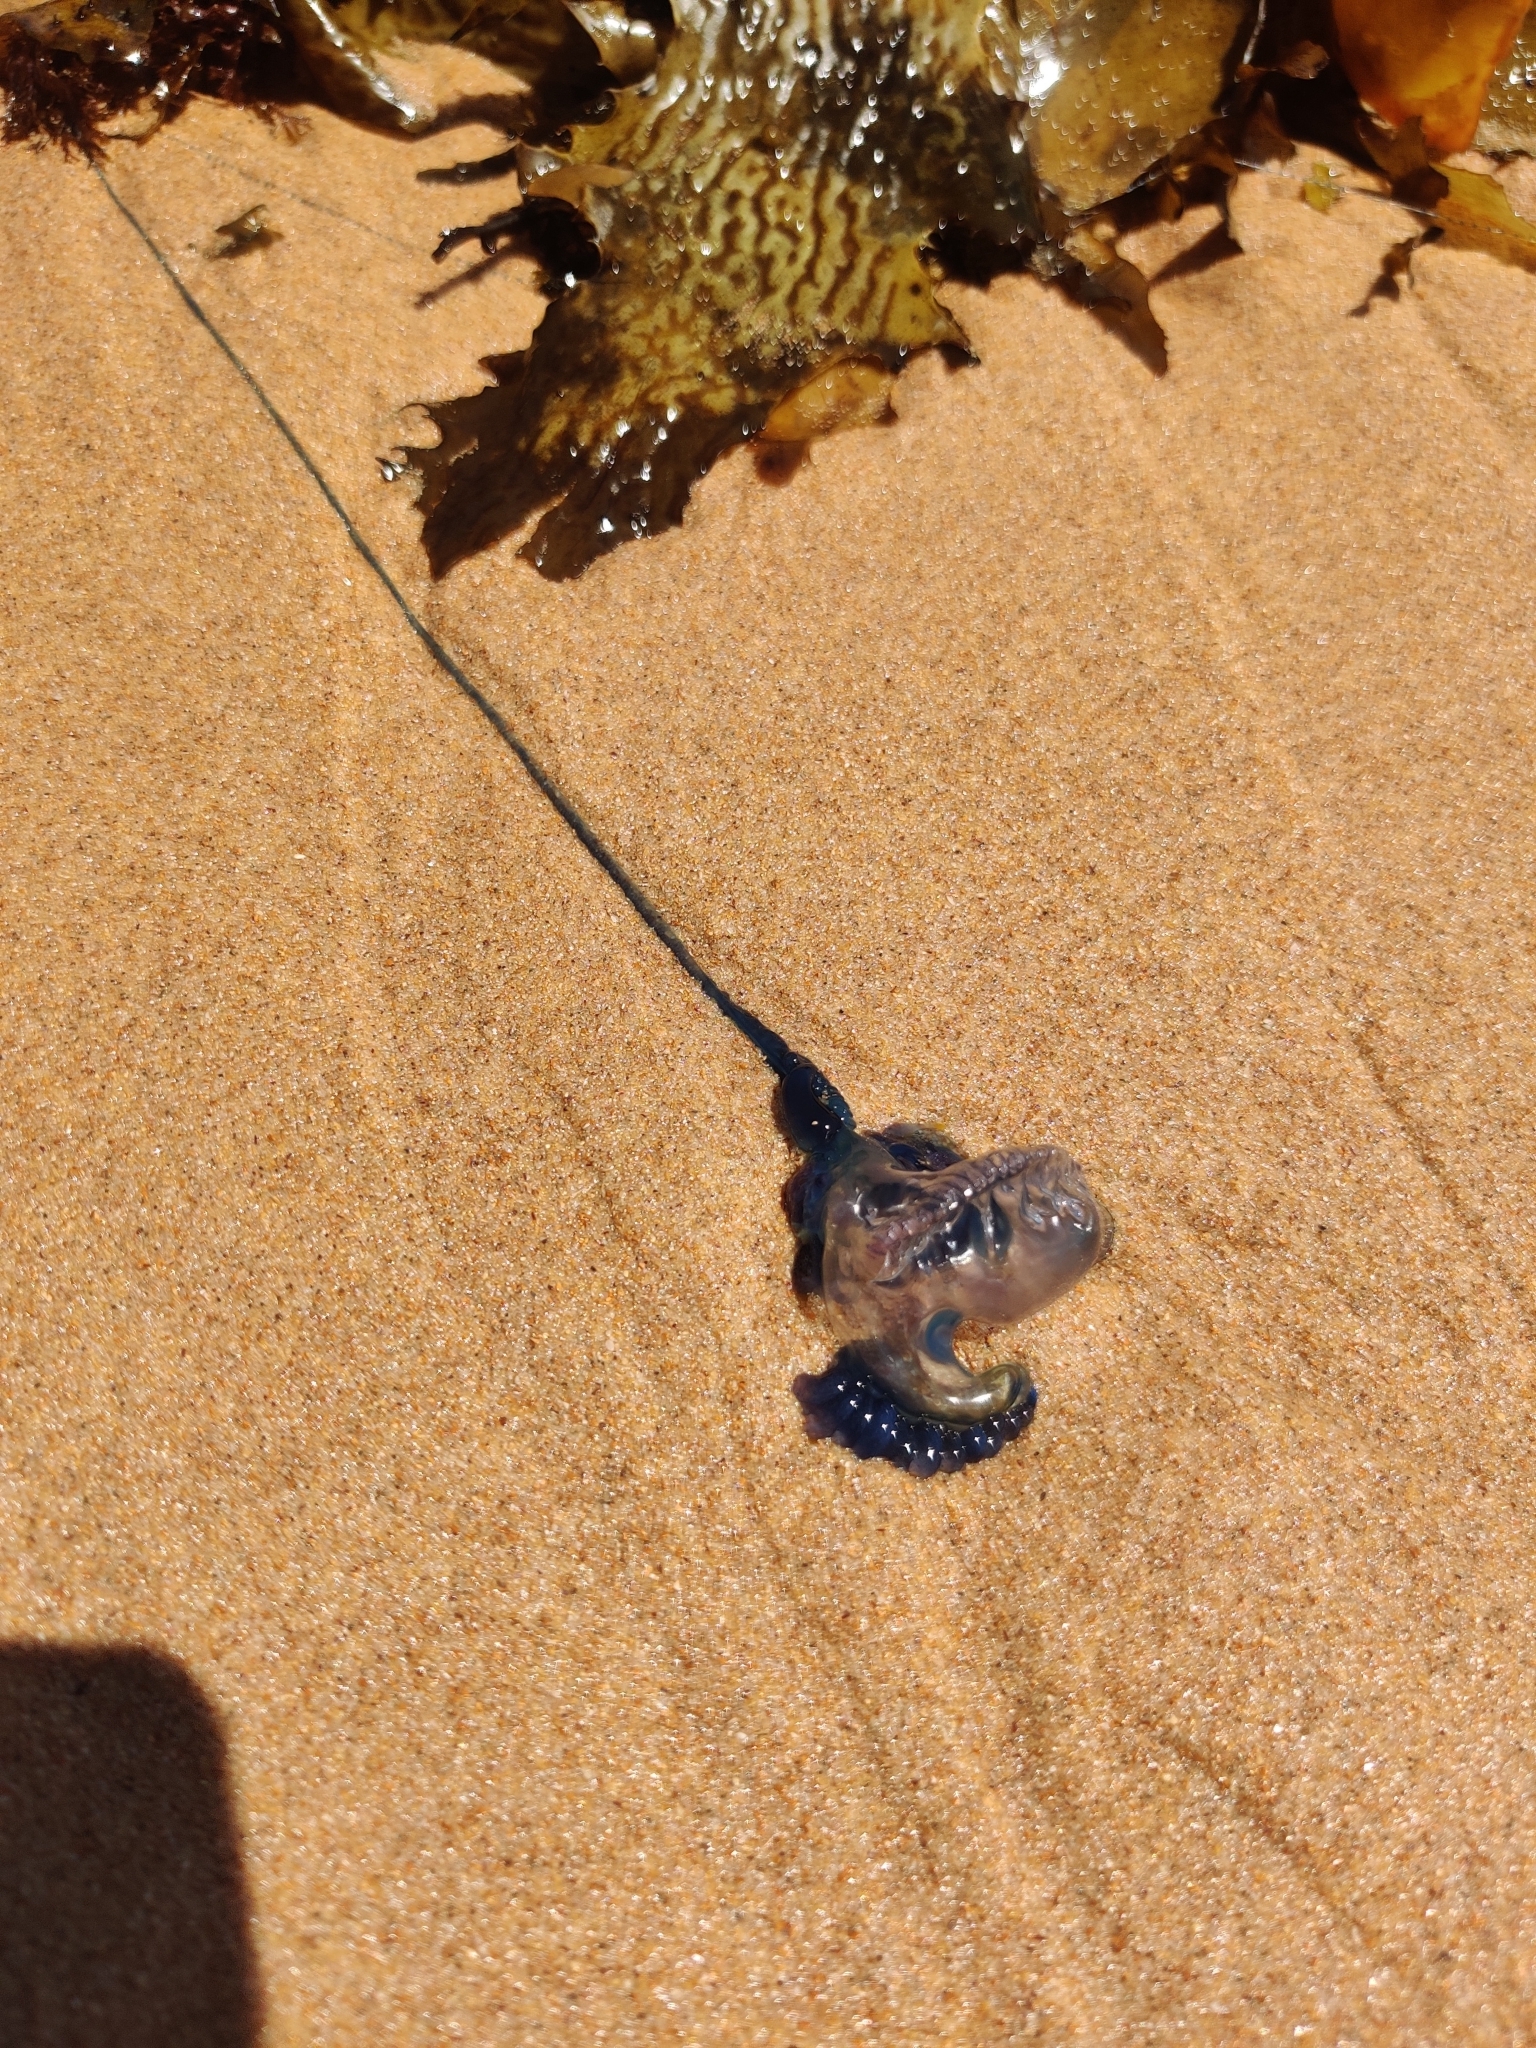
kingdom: Animalia
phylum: Cnidaria
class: Hydrozoa
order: Siphonophorae
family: Physaliidae
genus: Physalia
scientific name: Physalia physalis
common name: Portuguese man-of-war
